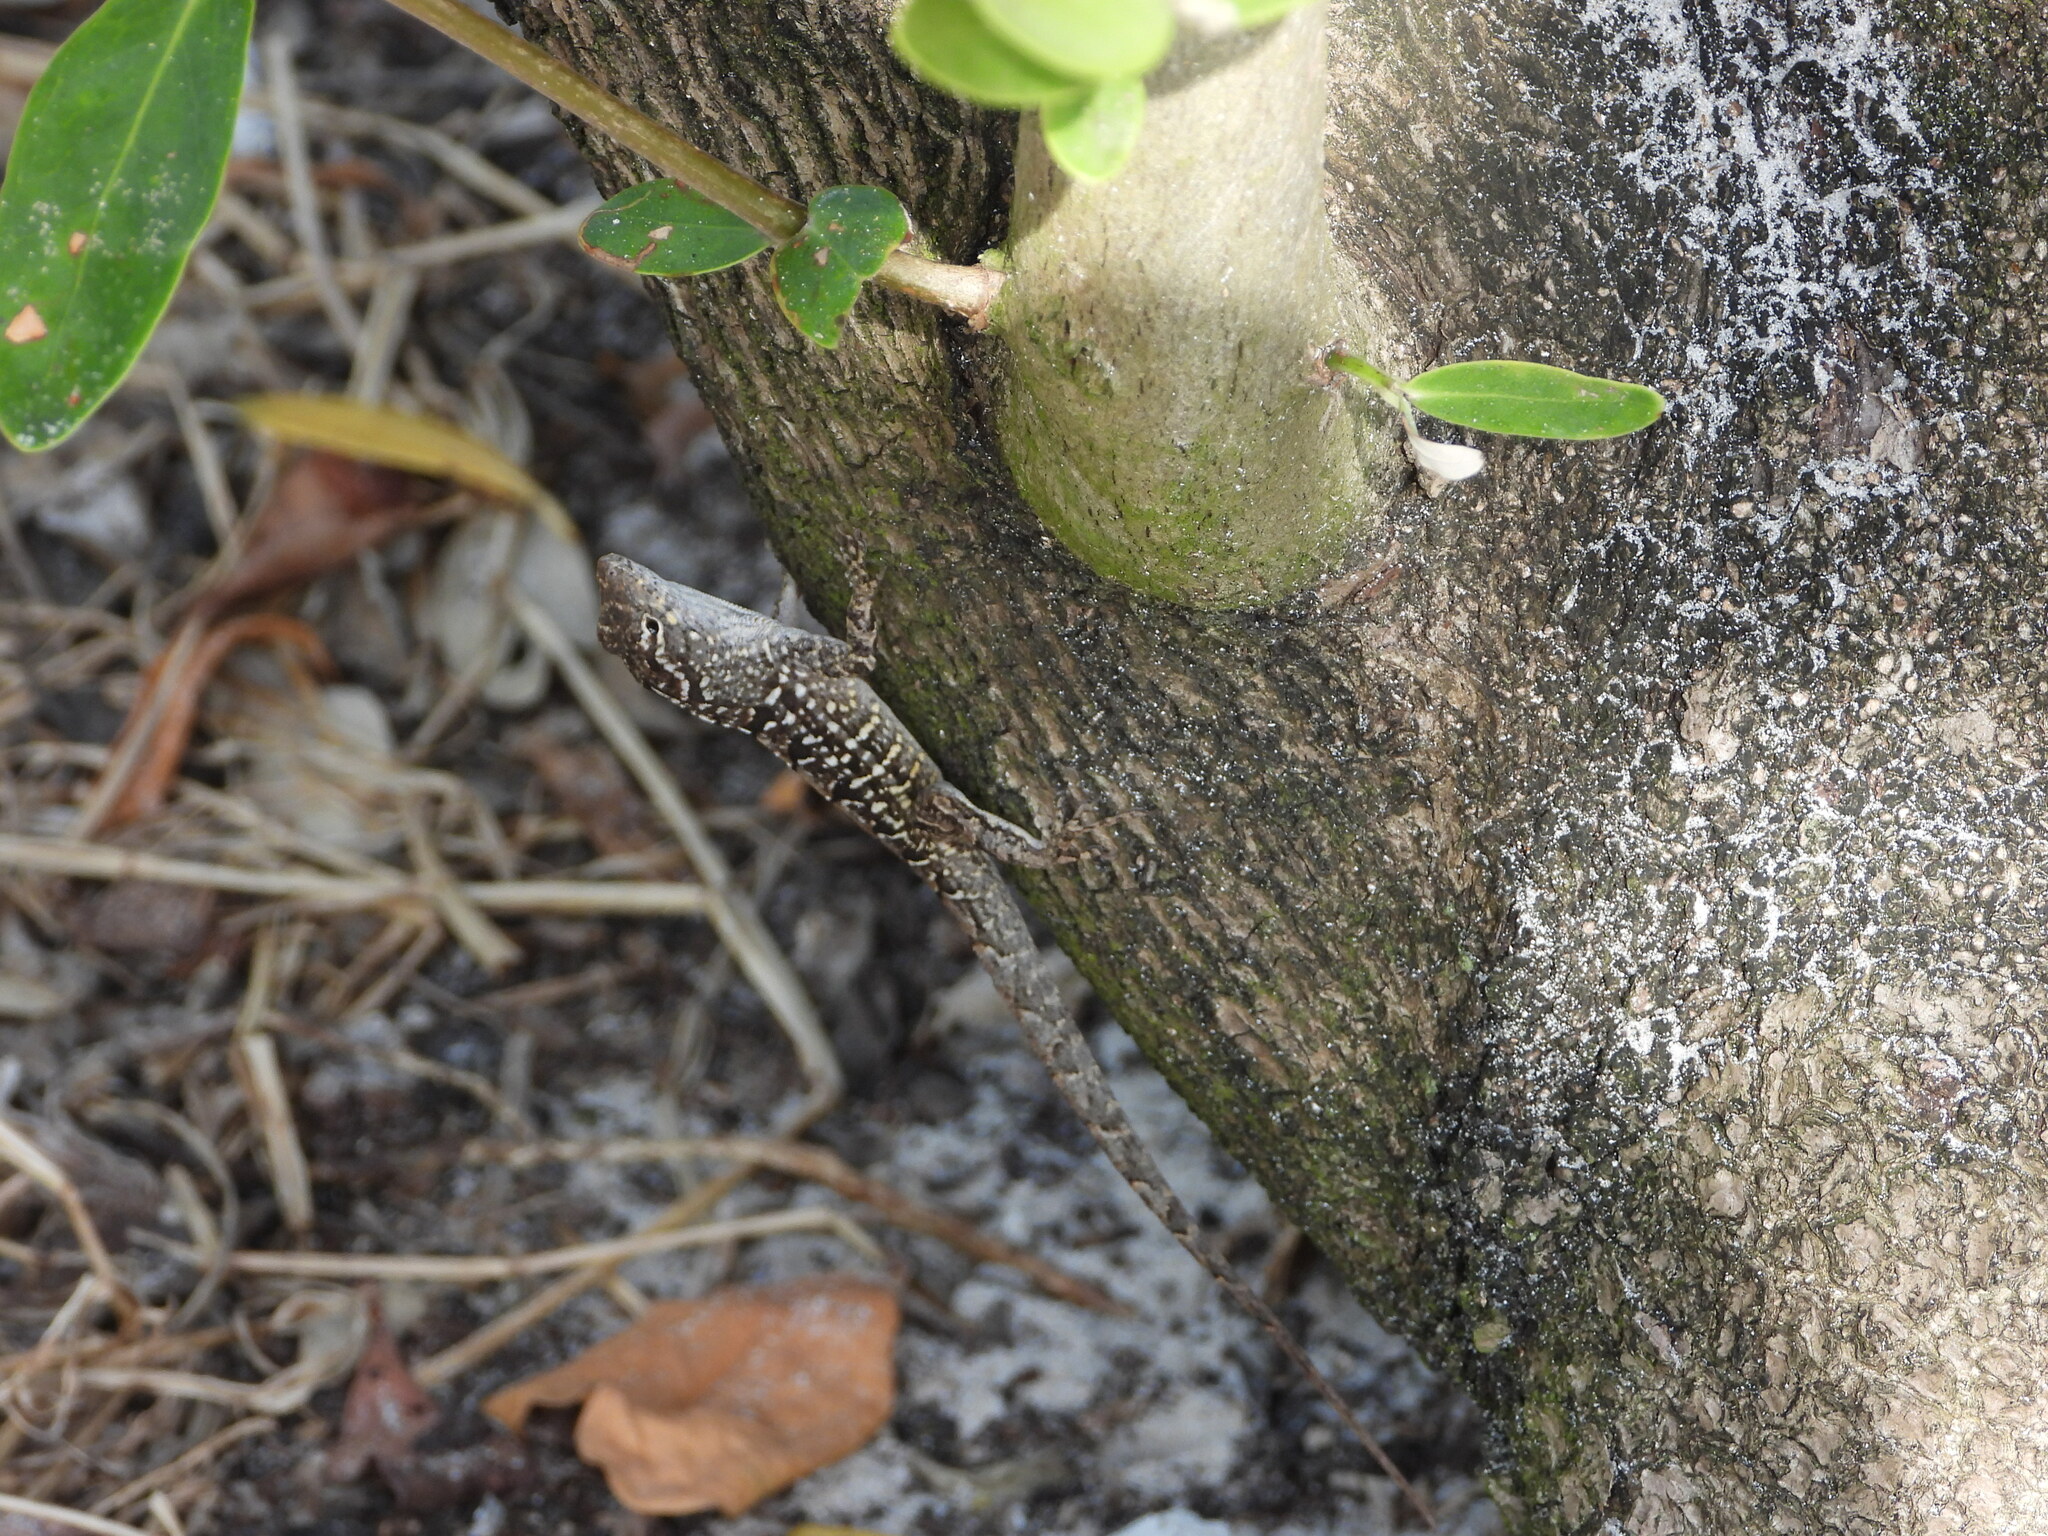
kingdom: Animalia
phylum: Chordata
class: Squamata
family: Dactyloidae
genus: Anolis
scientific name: Anolis sagrei
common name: Brown anole
